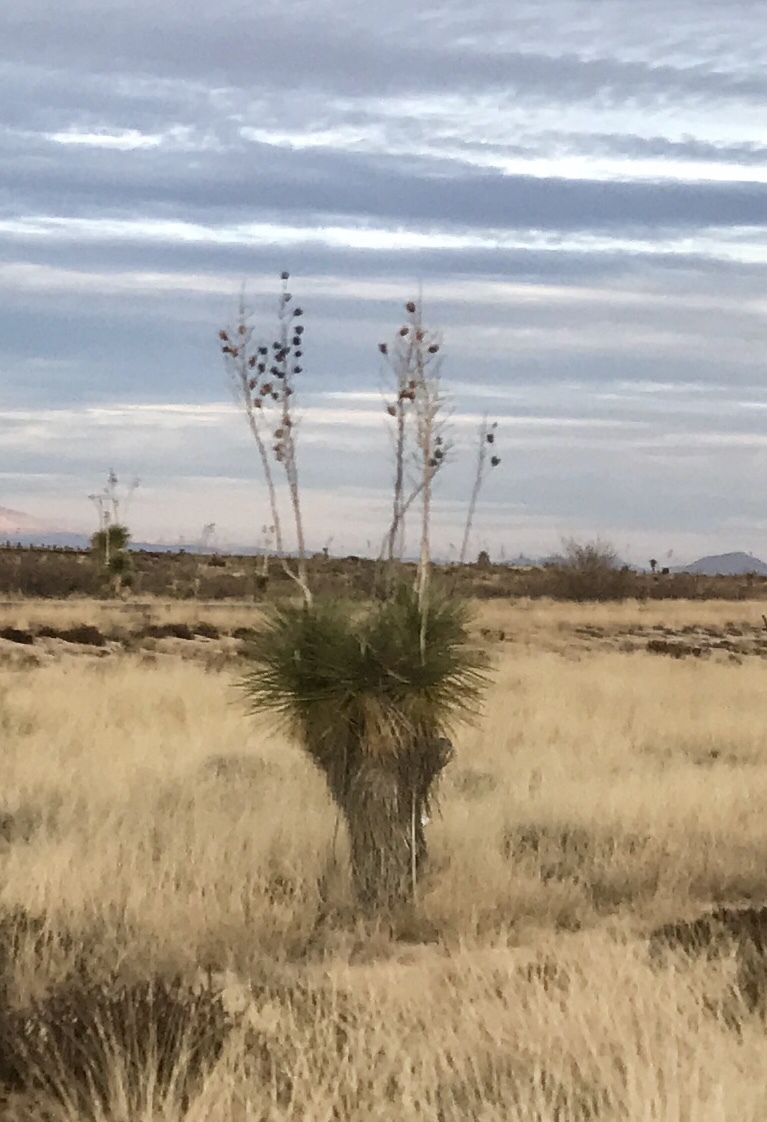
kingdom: Plantae
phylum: Tracheophyta
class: Liliopsida
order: Asparagales
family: Asparagaceae
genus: Yucca
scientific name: Yucca elata
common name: Palmella
